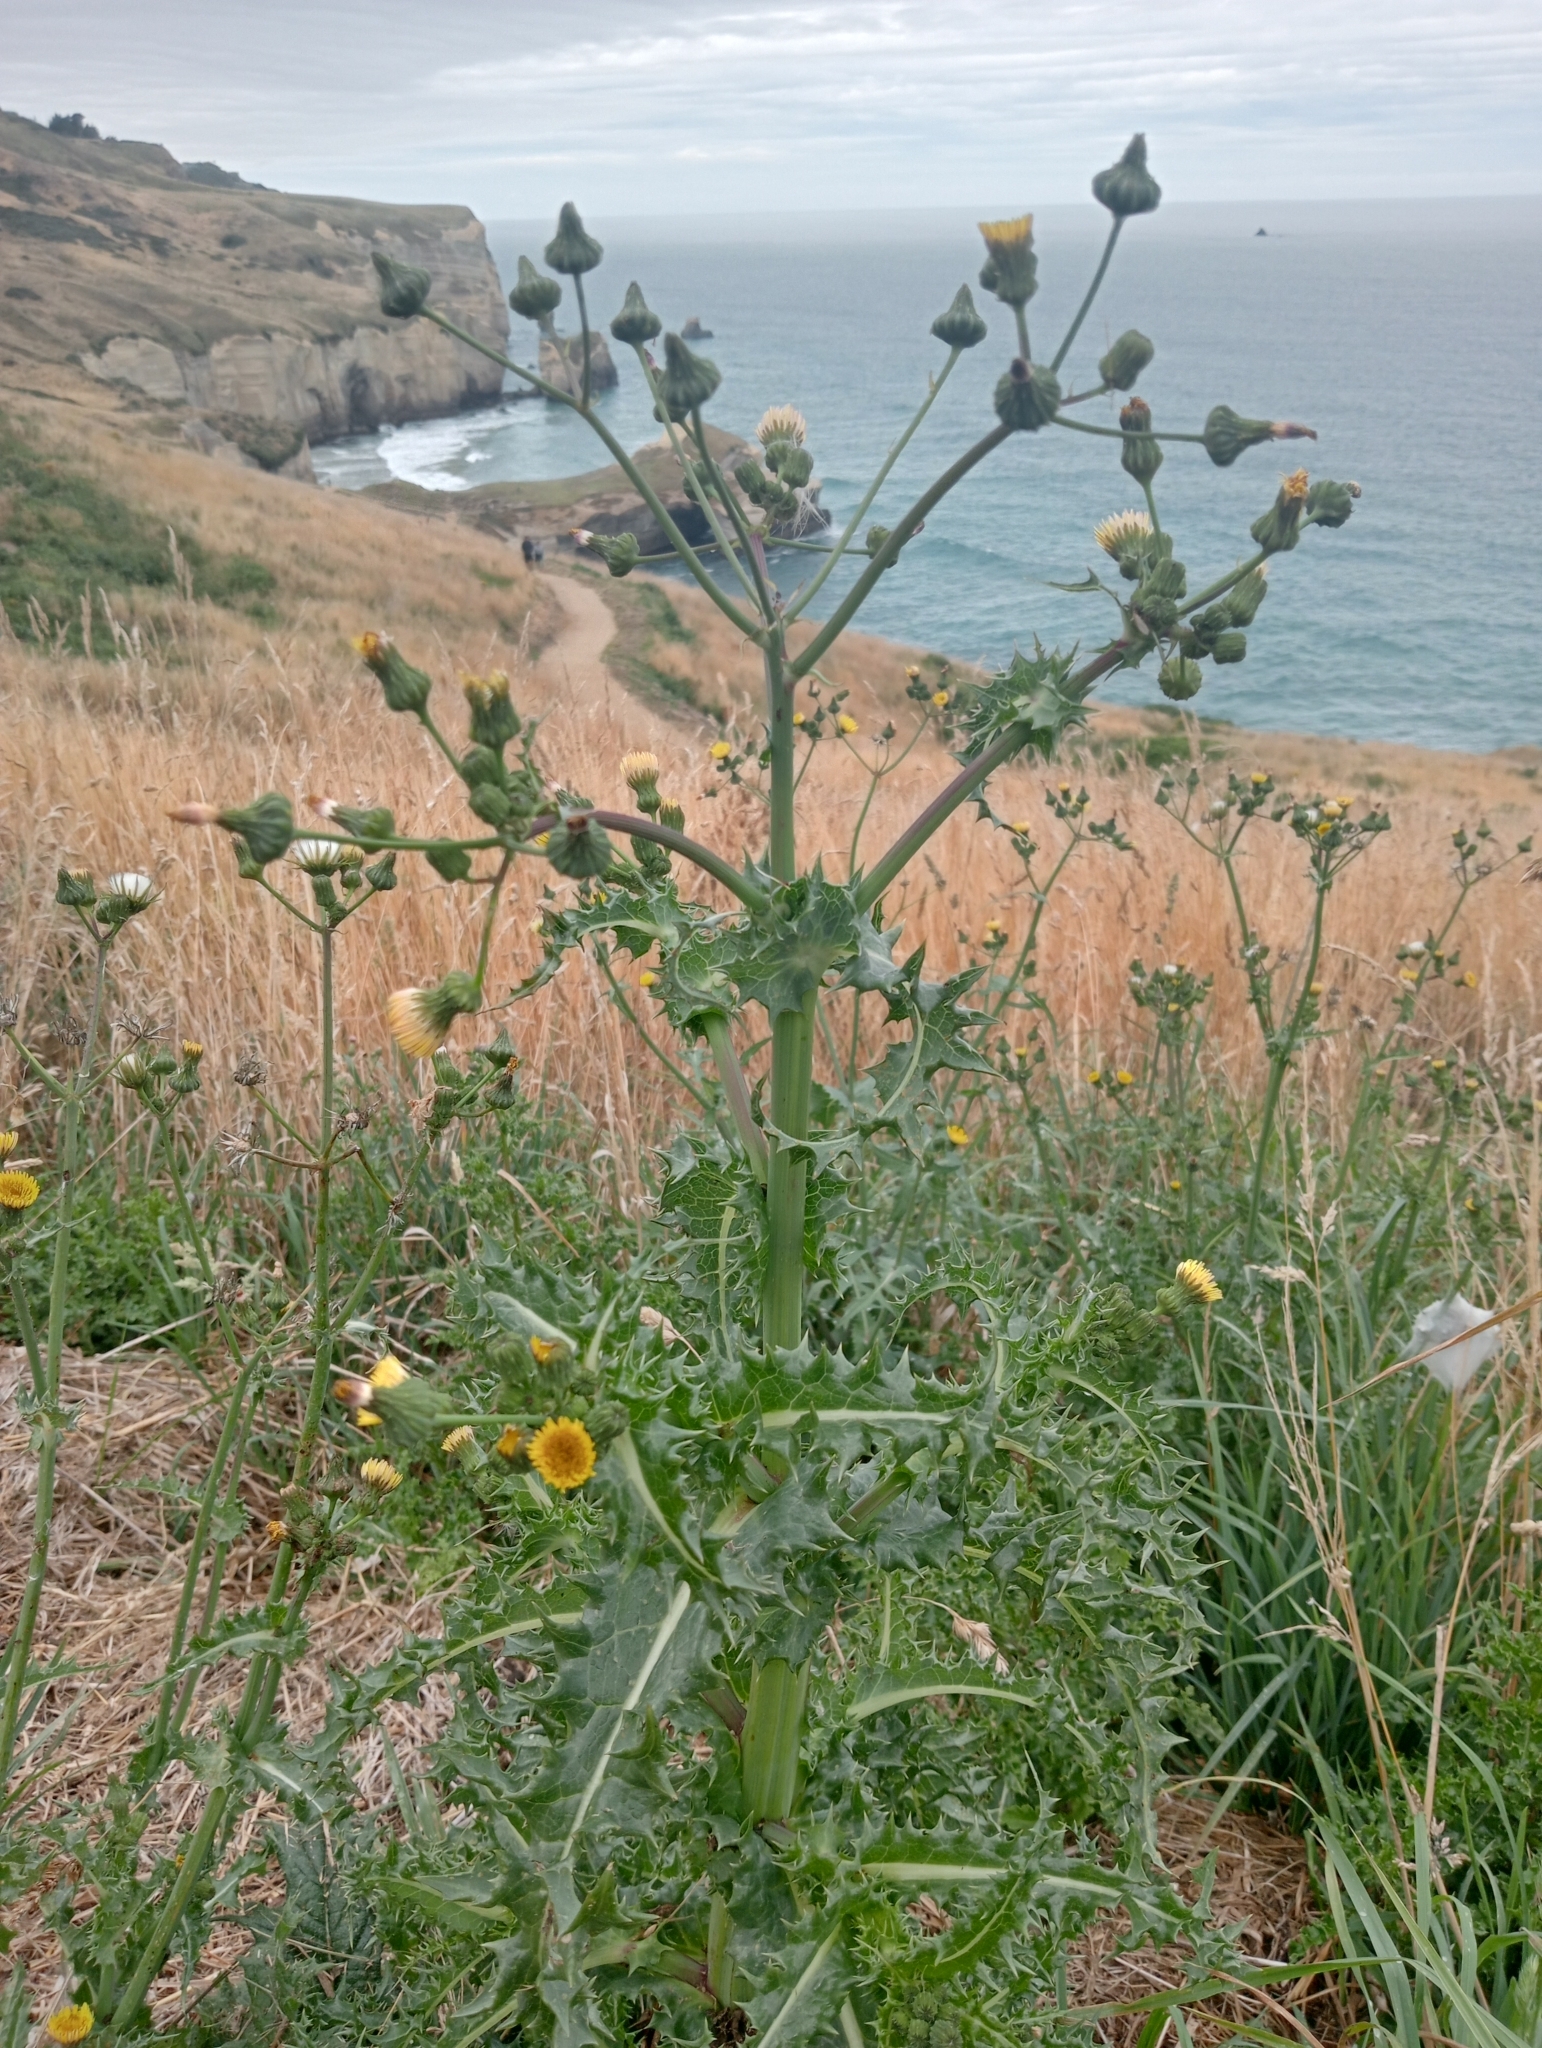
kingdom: Plantae
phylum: Tracheophyta
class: Magnoliopsida
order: Asterales
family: Asteraceae
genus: Sonchus
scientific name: Sonchus asper
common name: Prickly sow-thistle
